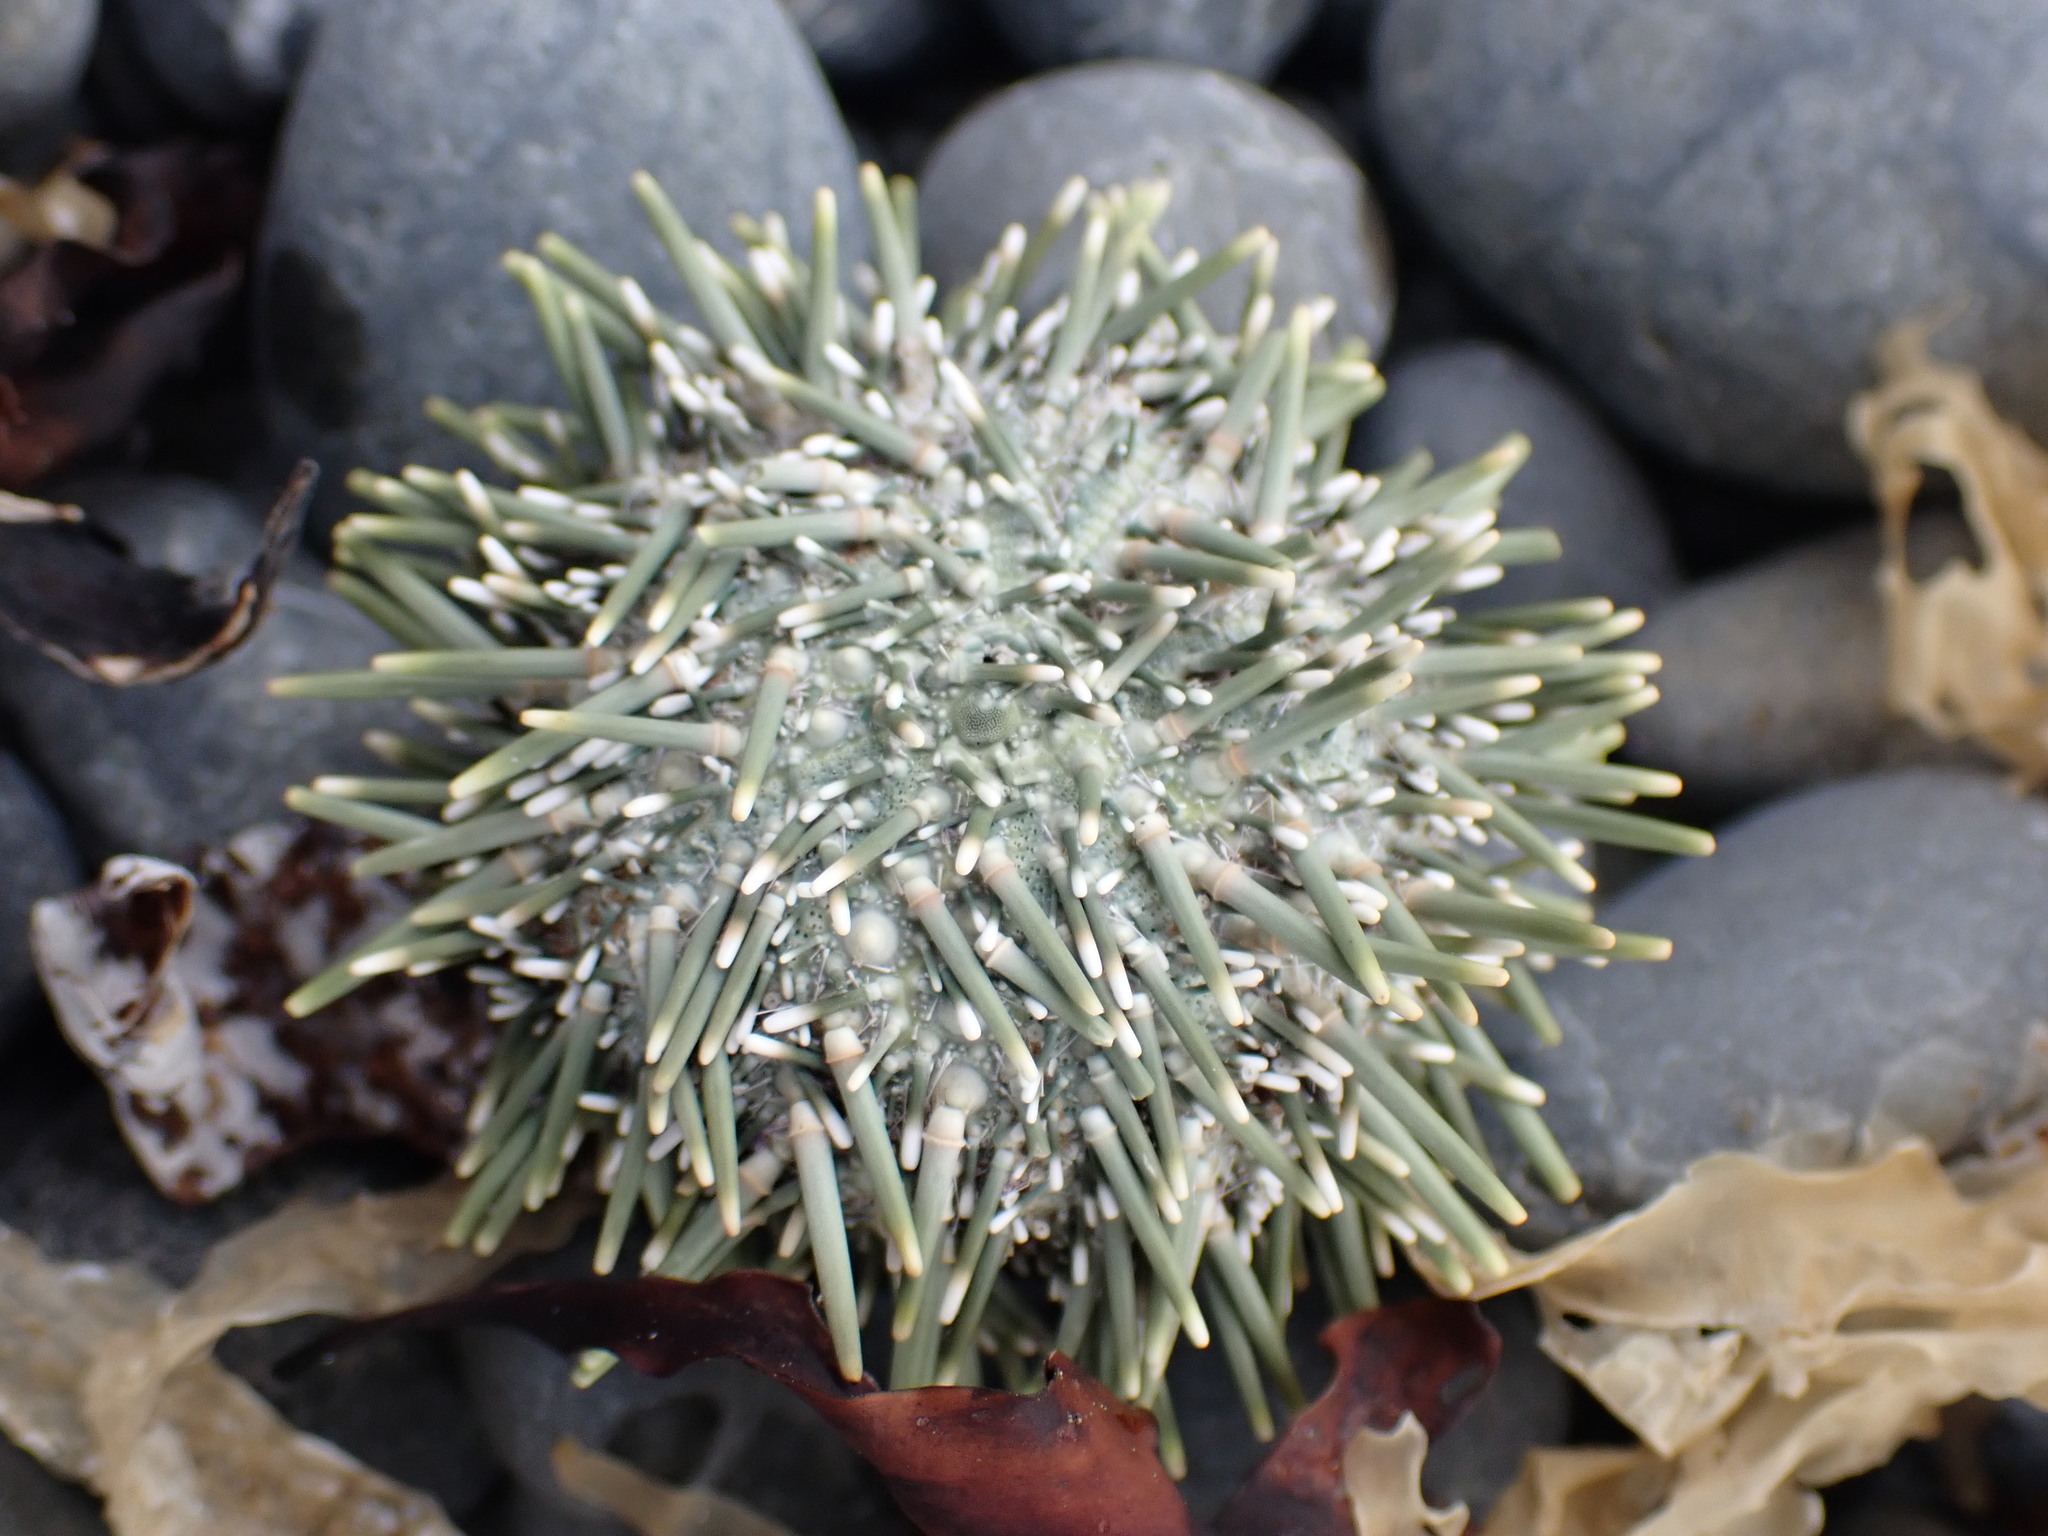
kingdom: Animalia
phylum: Echinodermata
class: Echinoidea
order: Camarodonta
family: Echinometridae
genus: Evechinus
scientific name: Evechinus chloroticus
